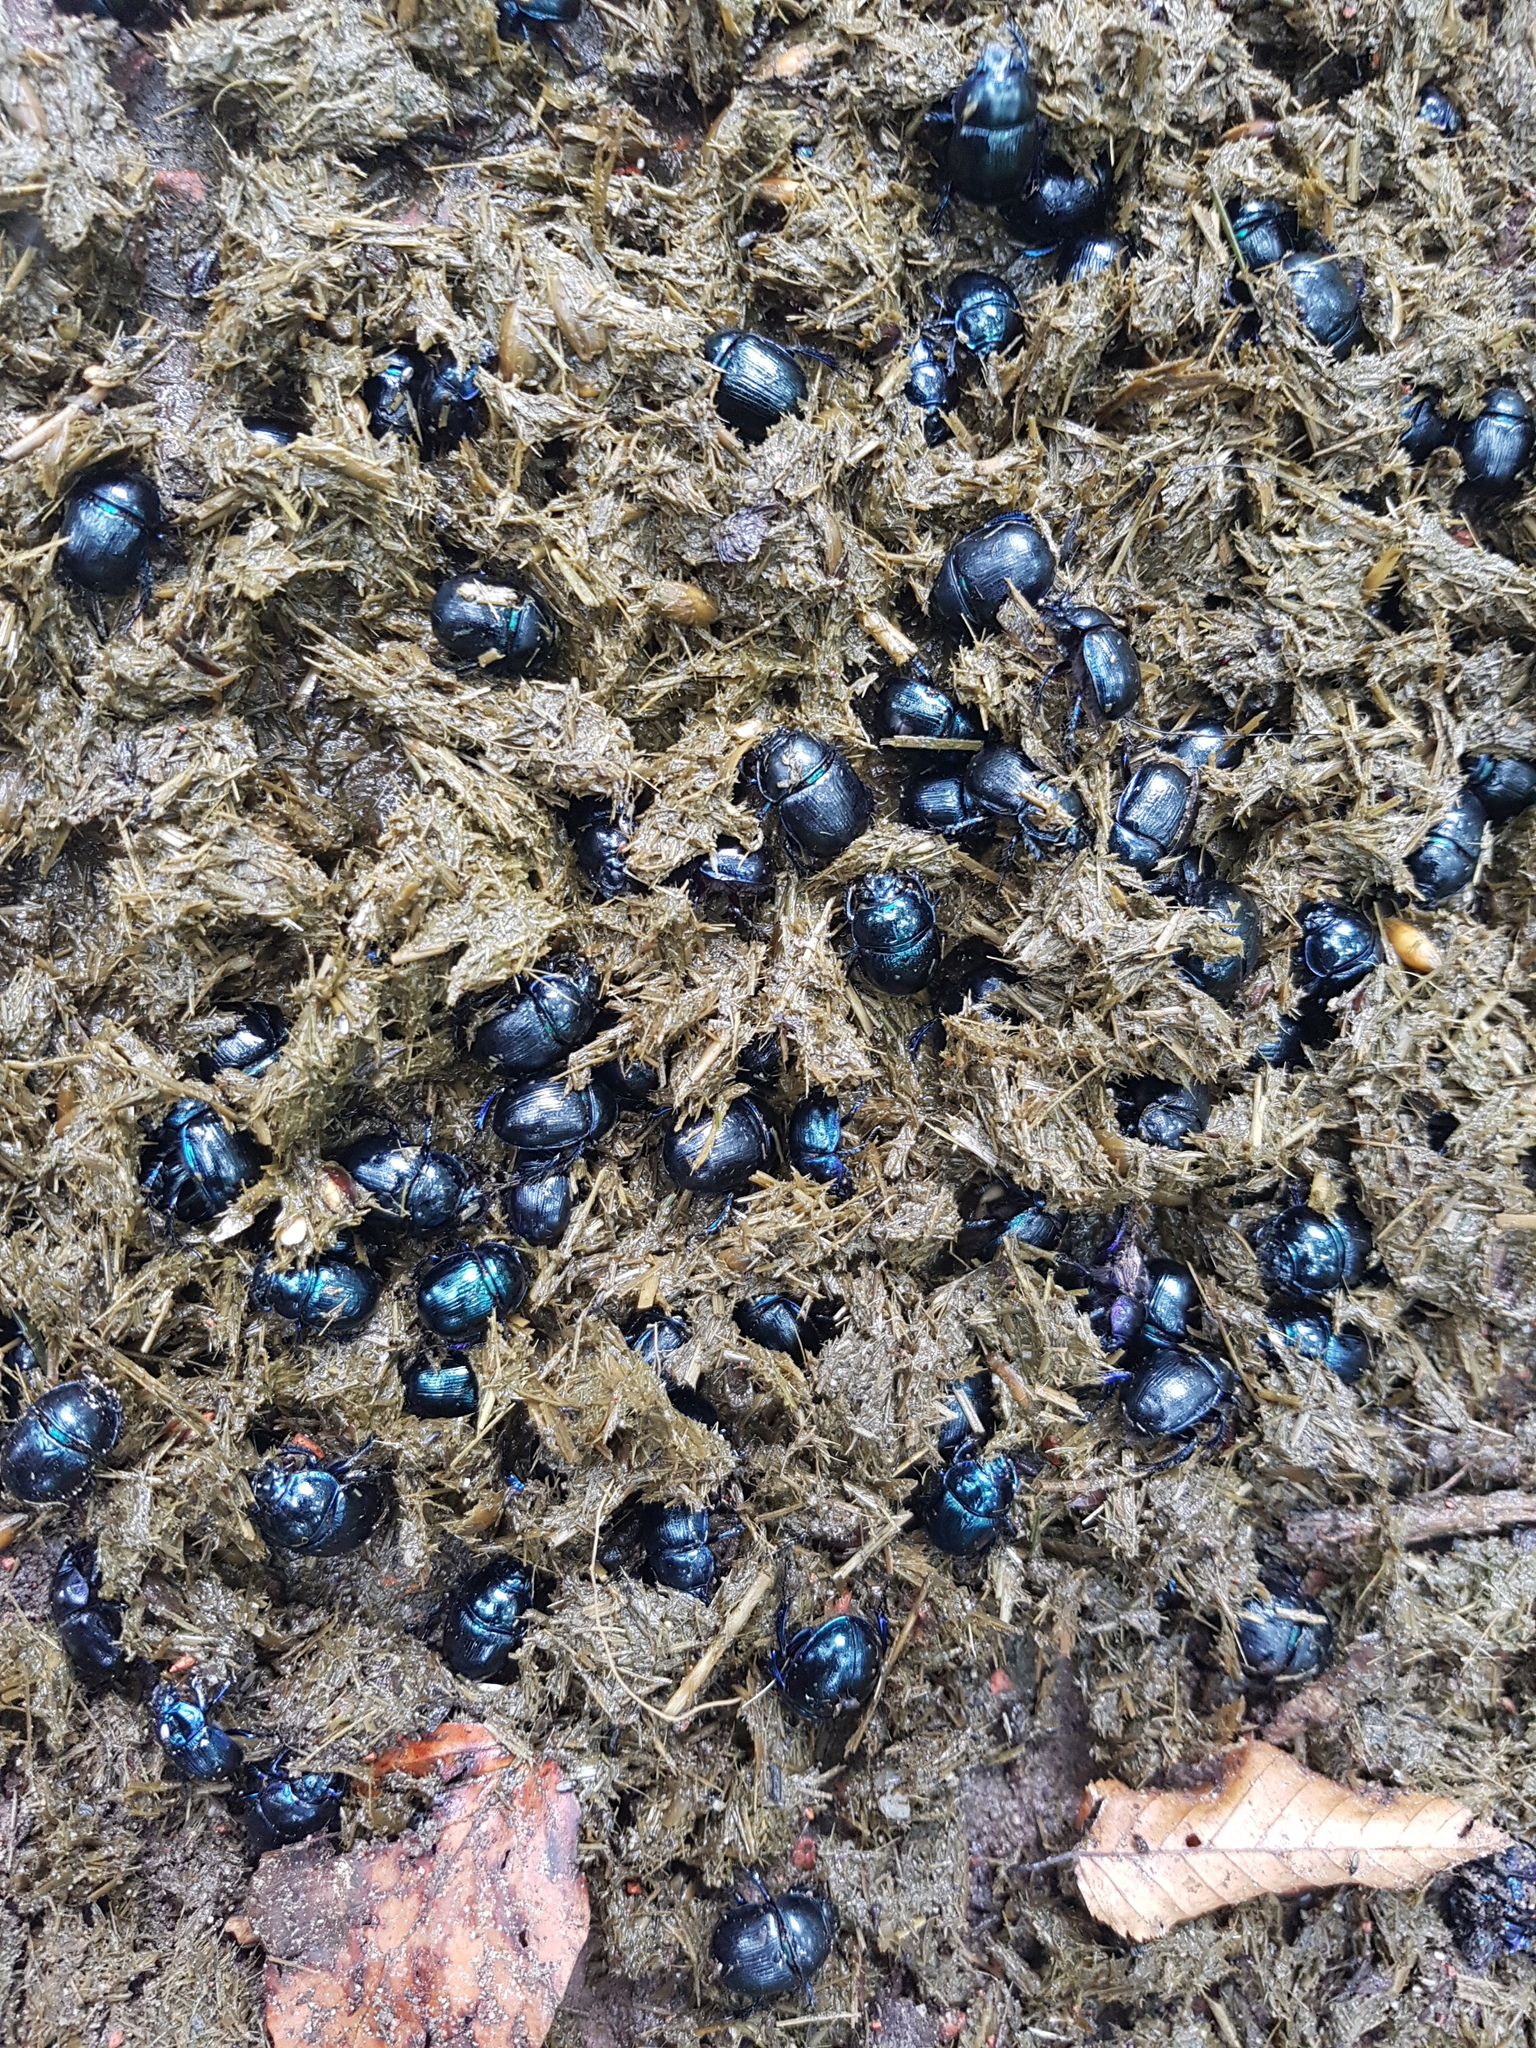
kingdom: Animalia
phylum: Arthropoda
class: Insecta
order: Coleoptera
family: Geotrupidae
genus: Anoplotrupes
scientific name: Anoplotrupes stercorosus
